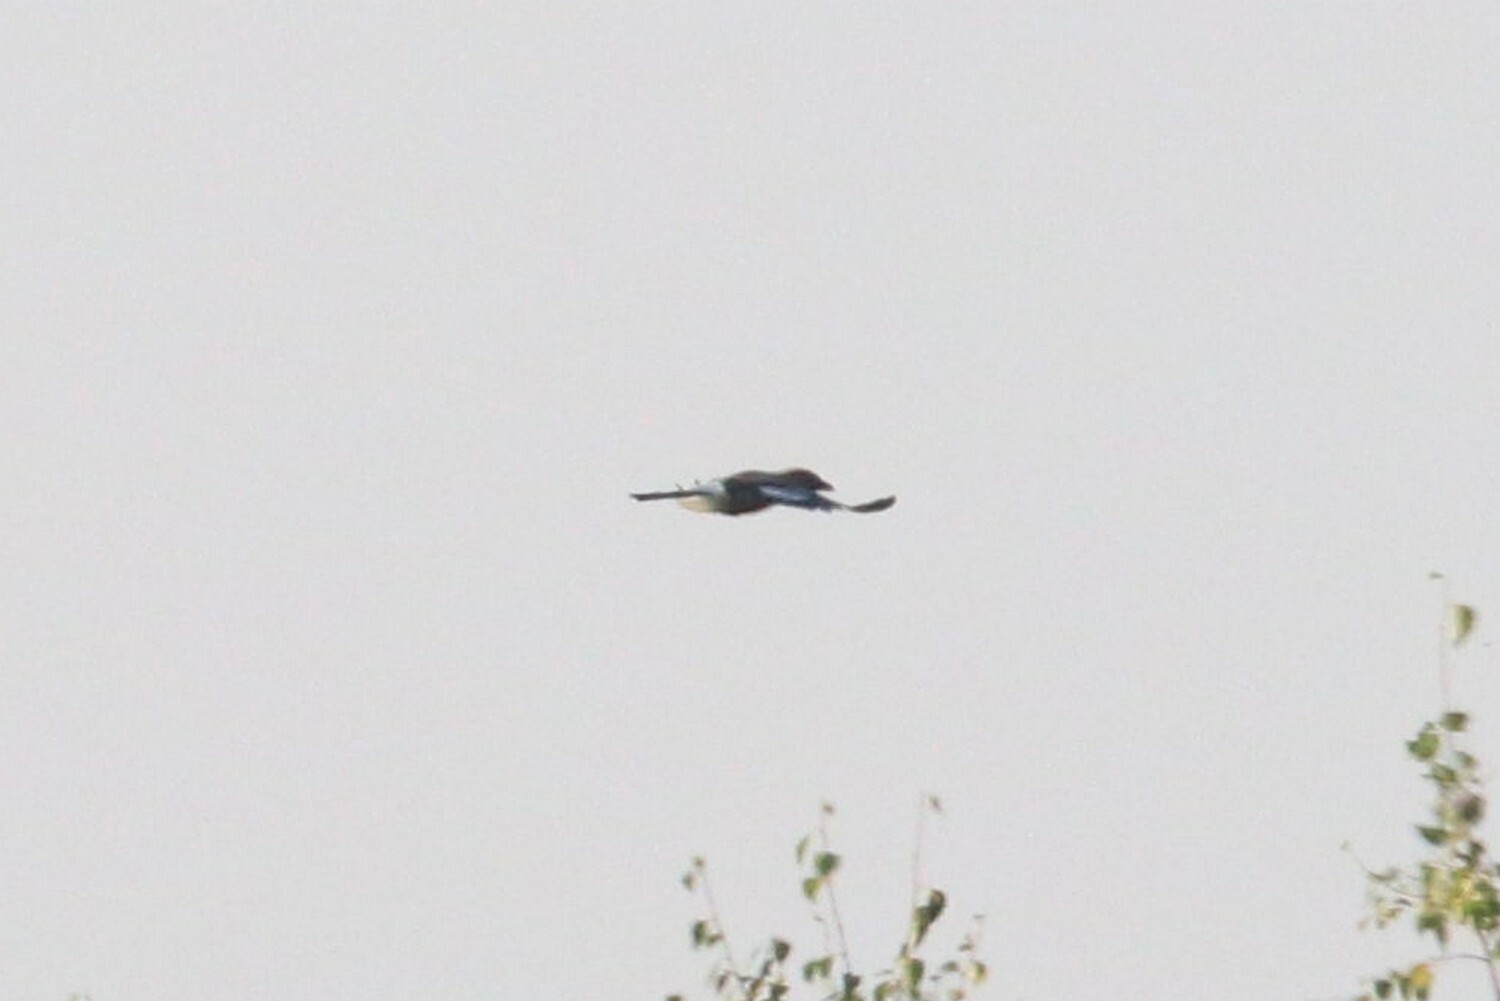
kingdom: Animalia
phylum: Chordata
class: Aves
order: Passeriformes
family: Corvidae
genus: Garrulus
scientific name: Garrulus glandarius
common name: Eurasian jay
